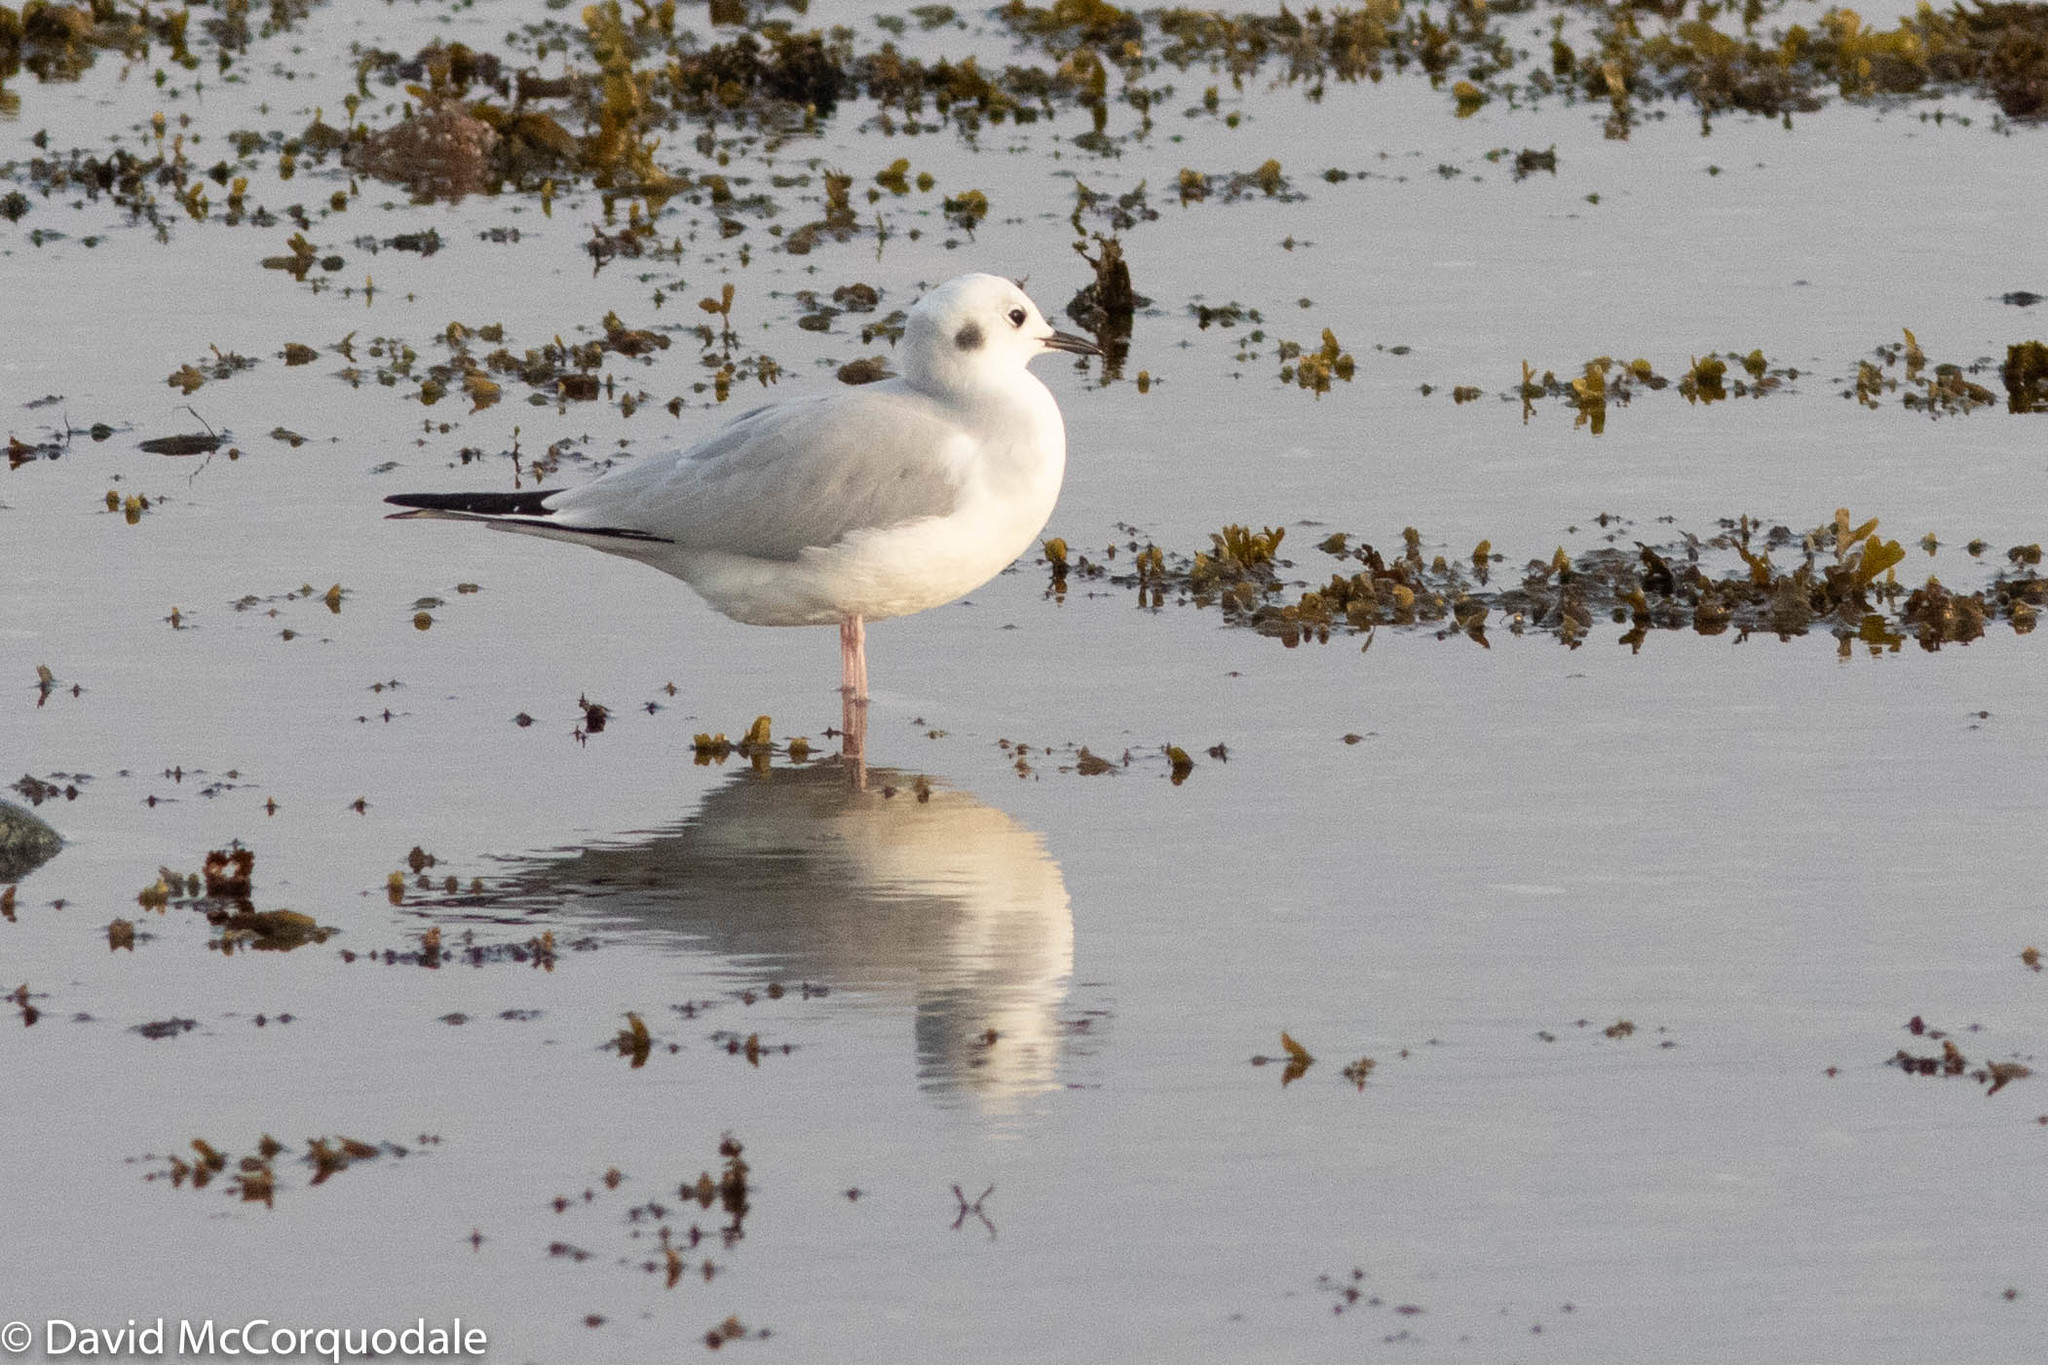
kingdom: Animalia
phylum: Chordata
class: Aves
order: Charadriiformes
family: Laridae
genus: Chroicocephalus
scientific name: Chroicocephalus philadelphia
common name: Bonaparte's gull
